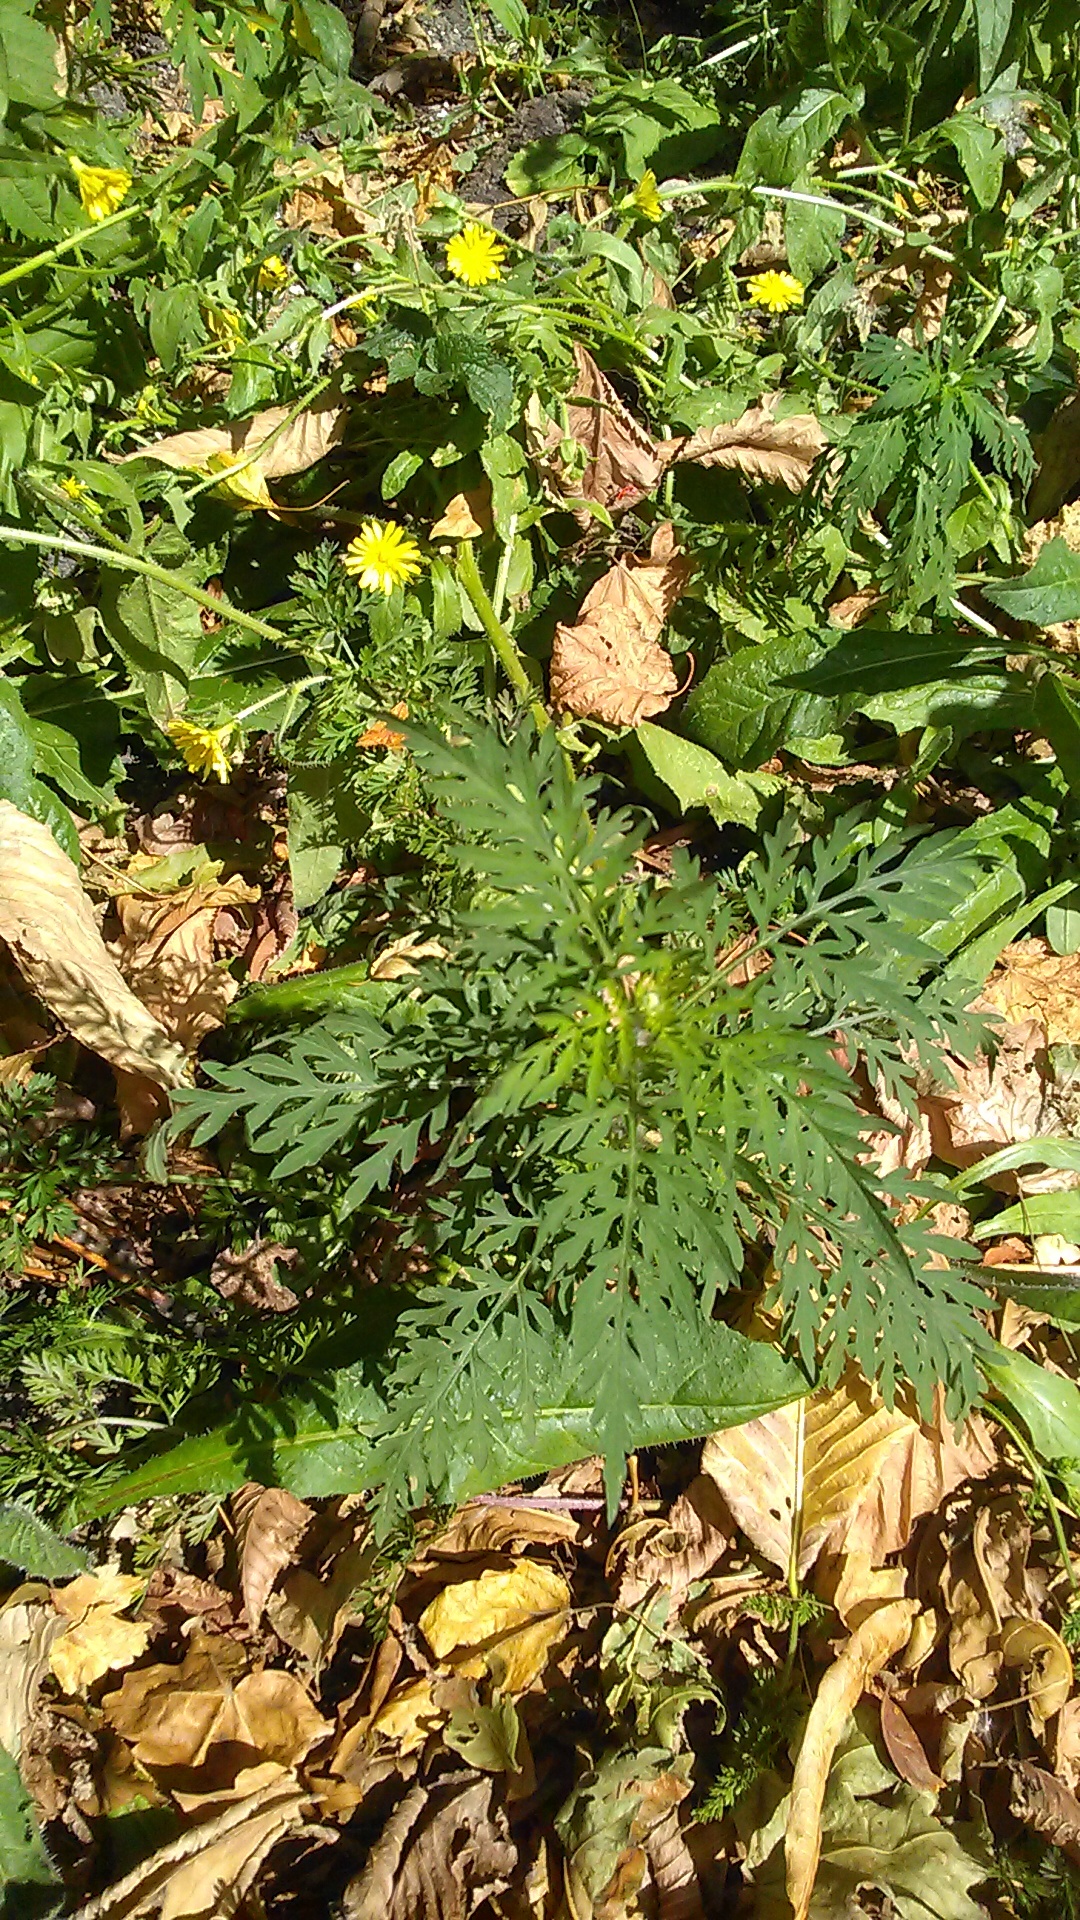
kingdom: Plantae
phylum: Tracheophyta
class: Magnoliopsida
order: Asterales
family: Asteraceae
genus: Ambrosia
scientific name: Ambrosia artemisiifolia
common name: Annual ragweed
